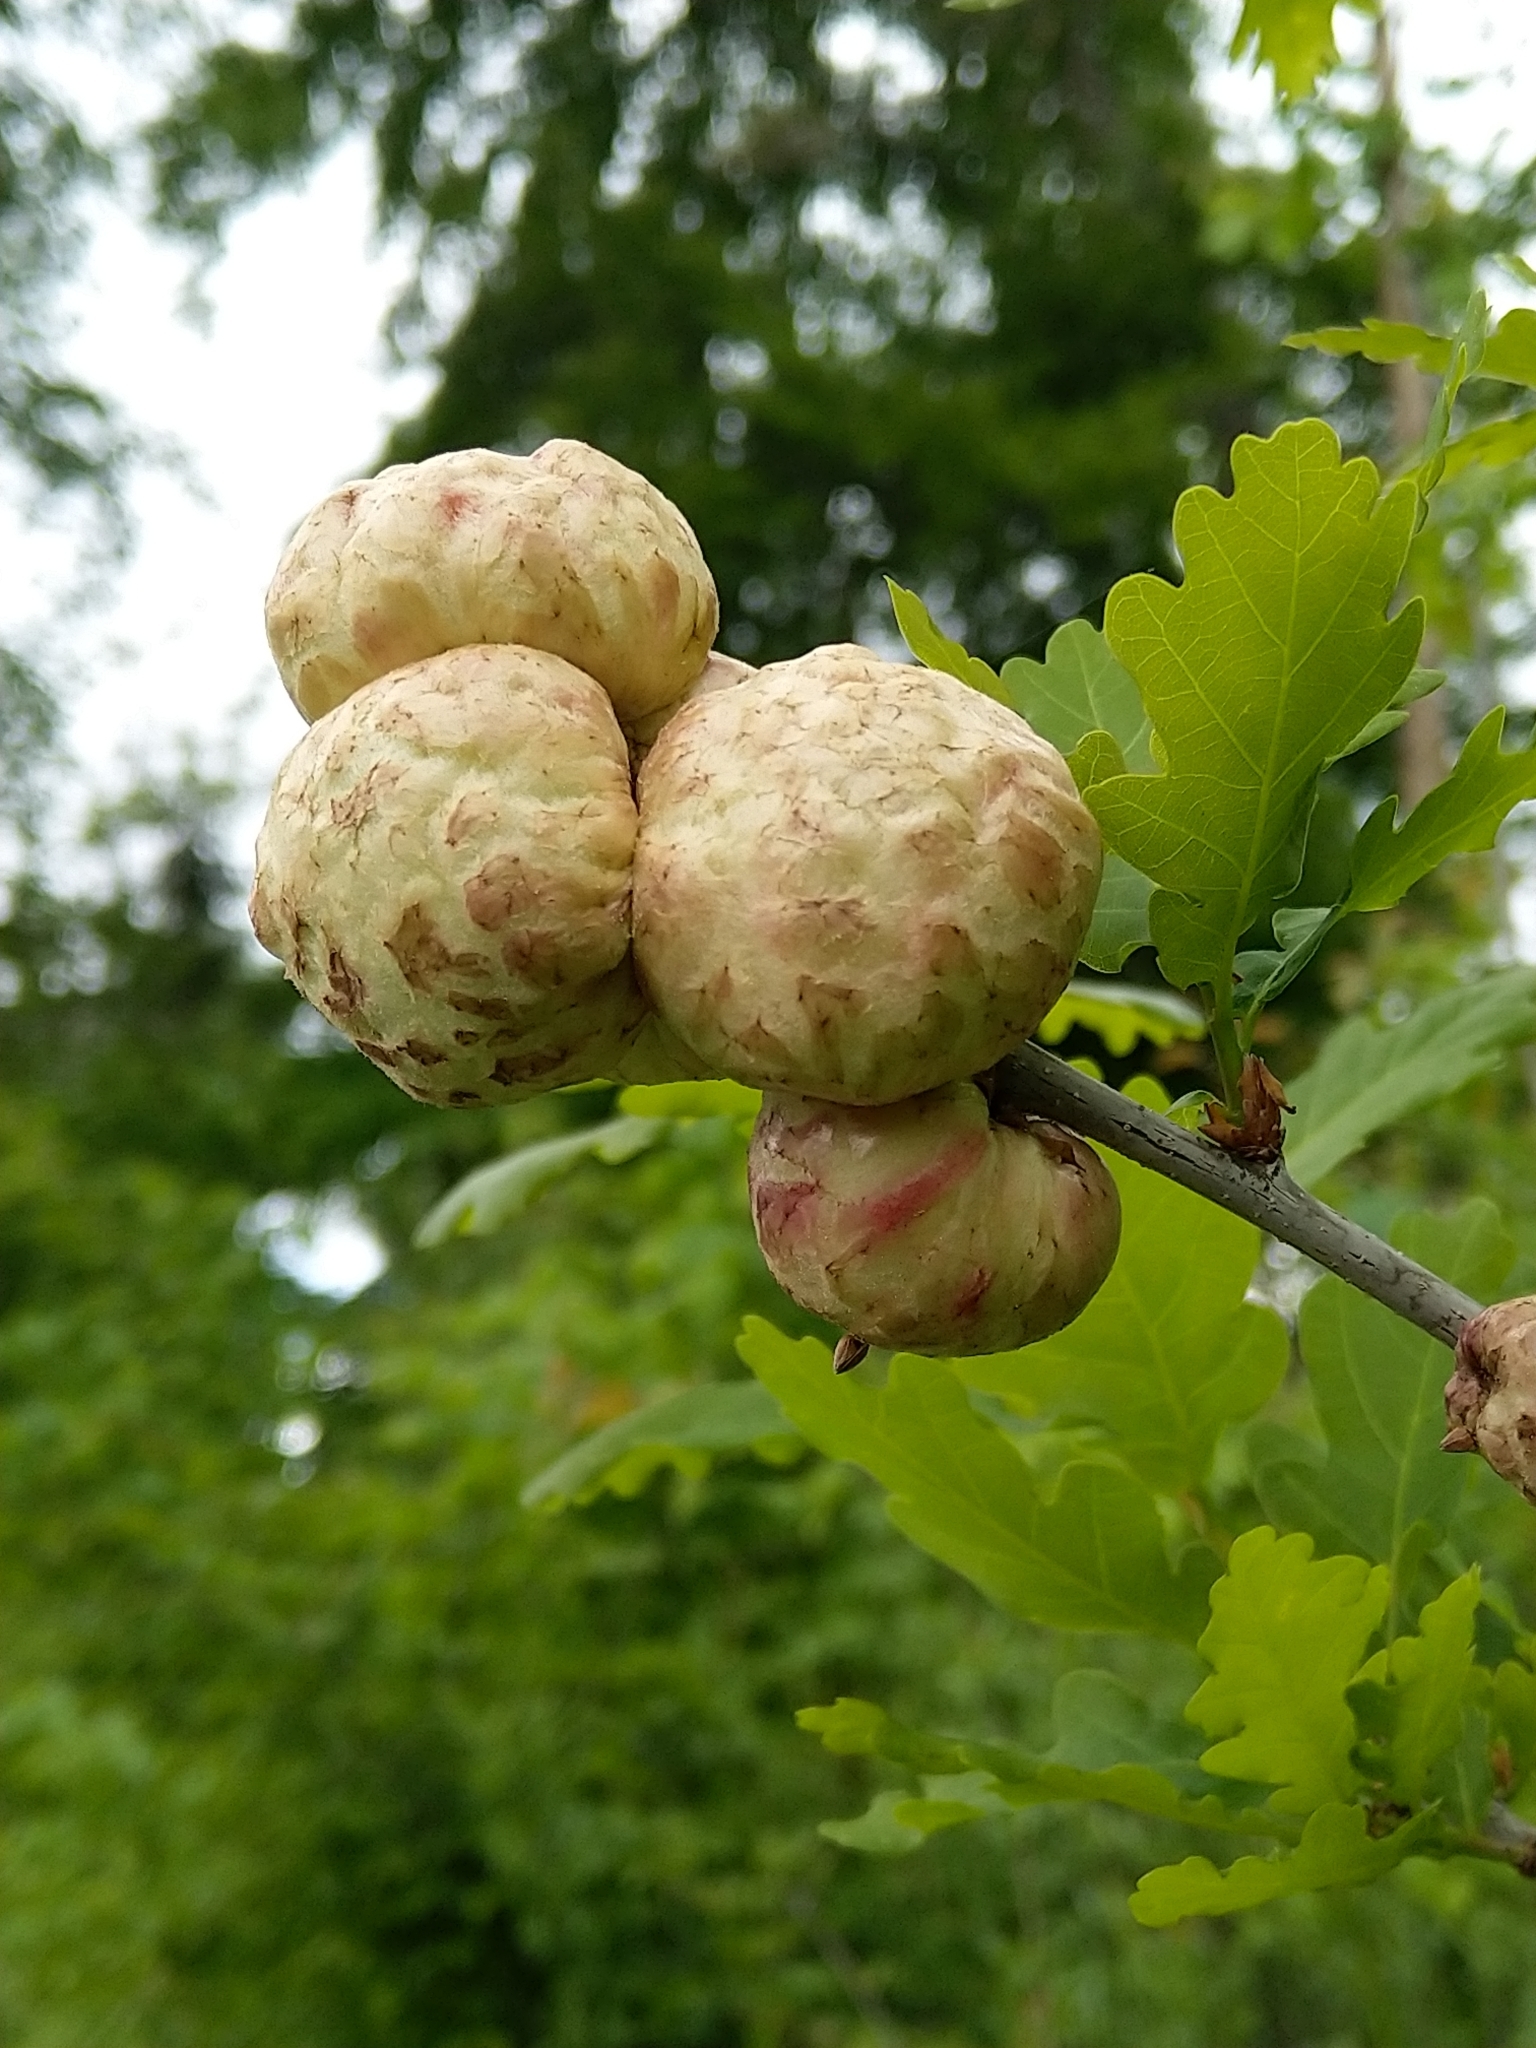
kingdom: Animalia
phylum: Arthropoda
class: Insecta
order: Hymenoptera
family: Cynipidae
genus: Biorhiza
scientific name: Biorhiza pallida
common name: Oak apple
